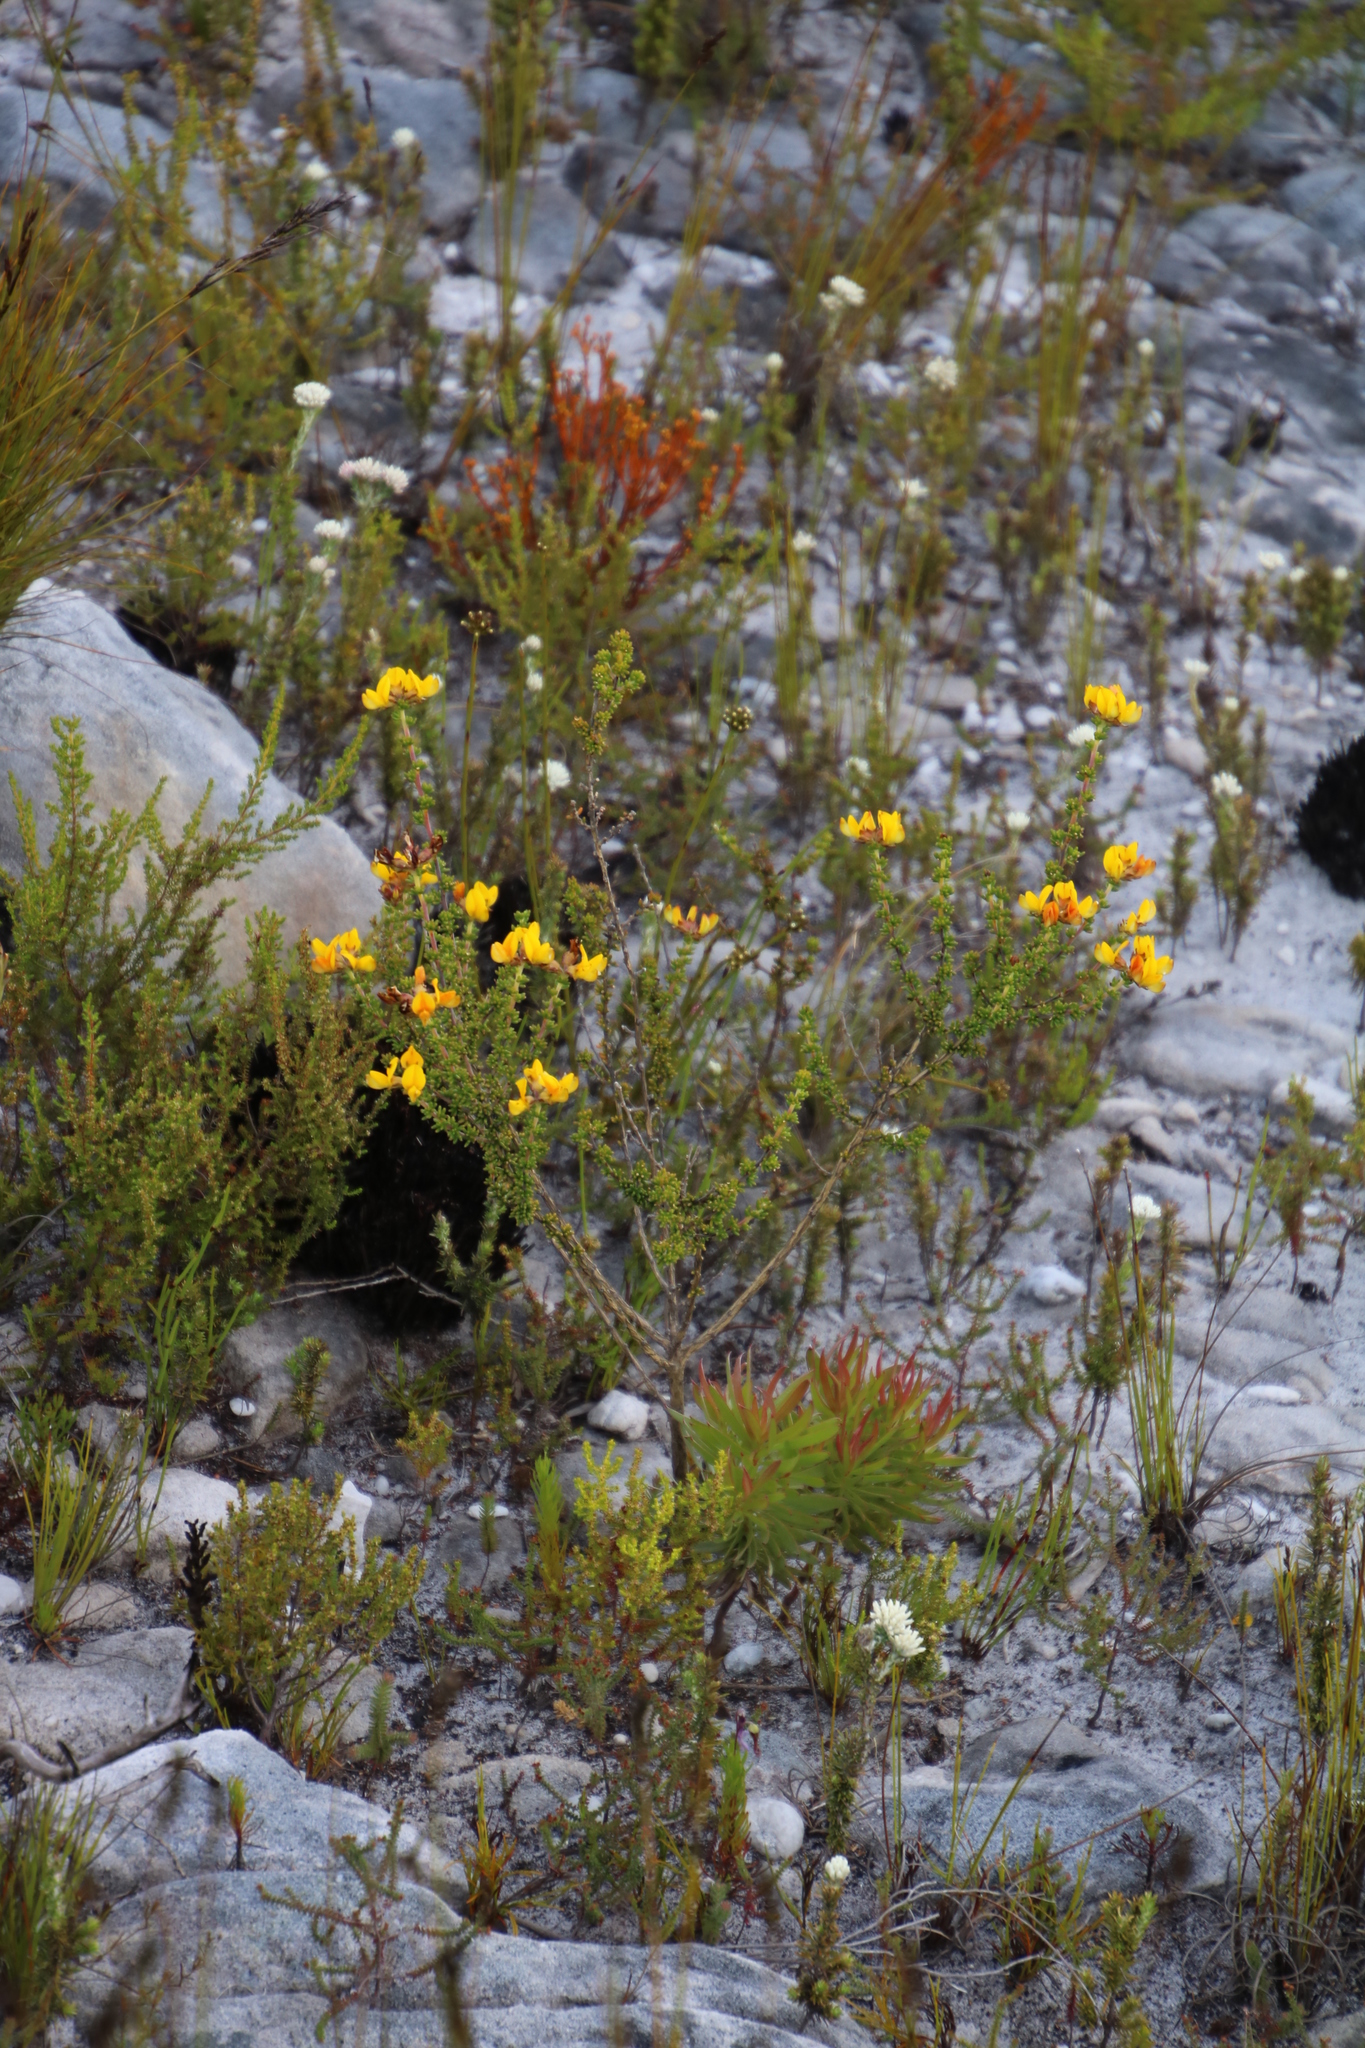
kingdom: Plantae
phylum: Tracheophyta
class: Magnoliopsida
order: Fabales
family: Fabaceae
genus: Aspalathus
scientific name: Aspalathus carnosa
